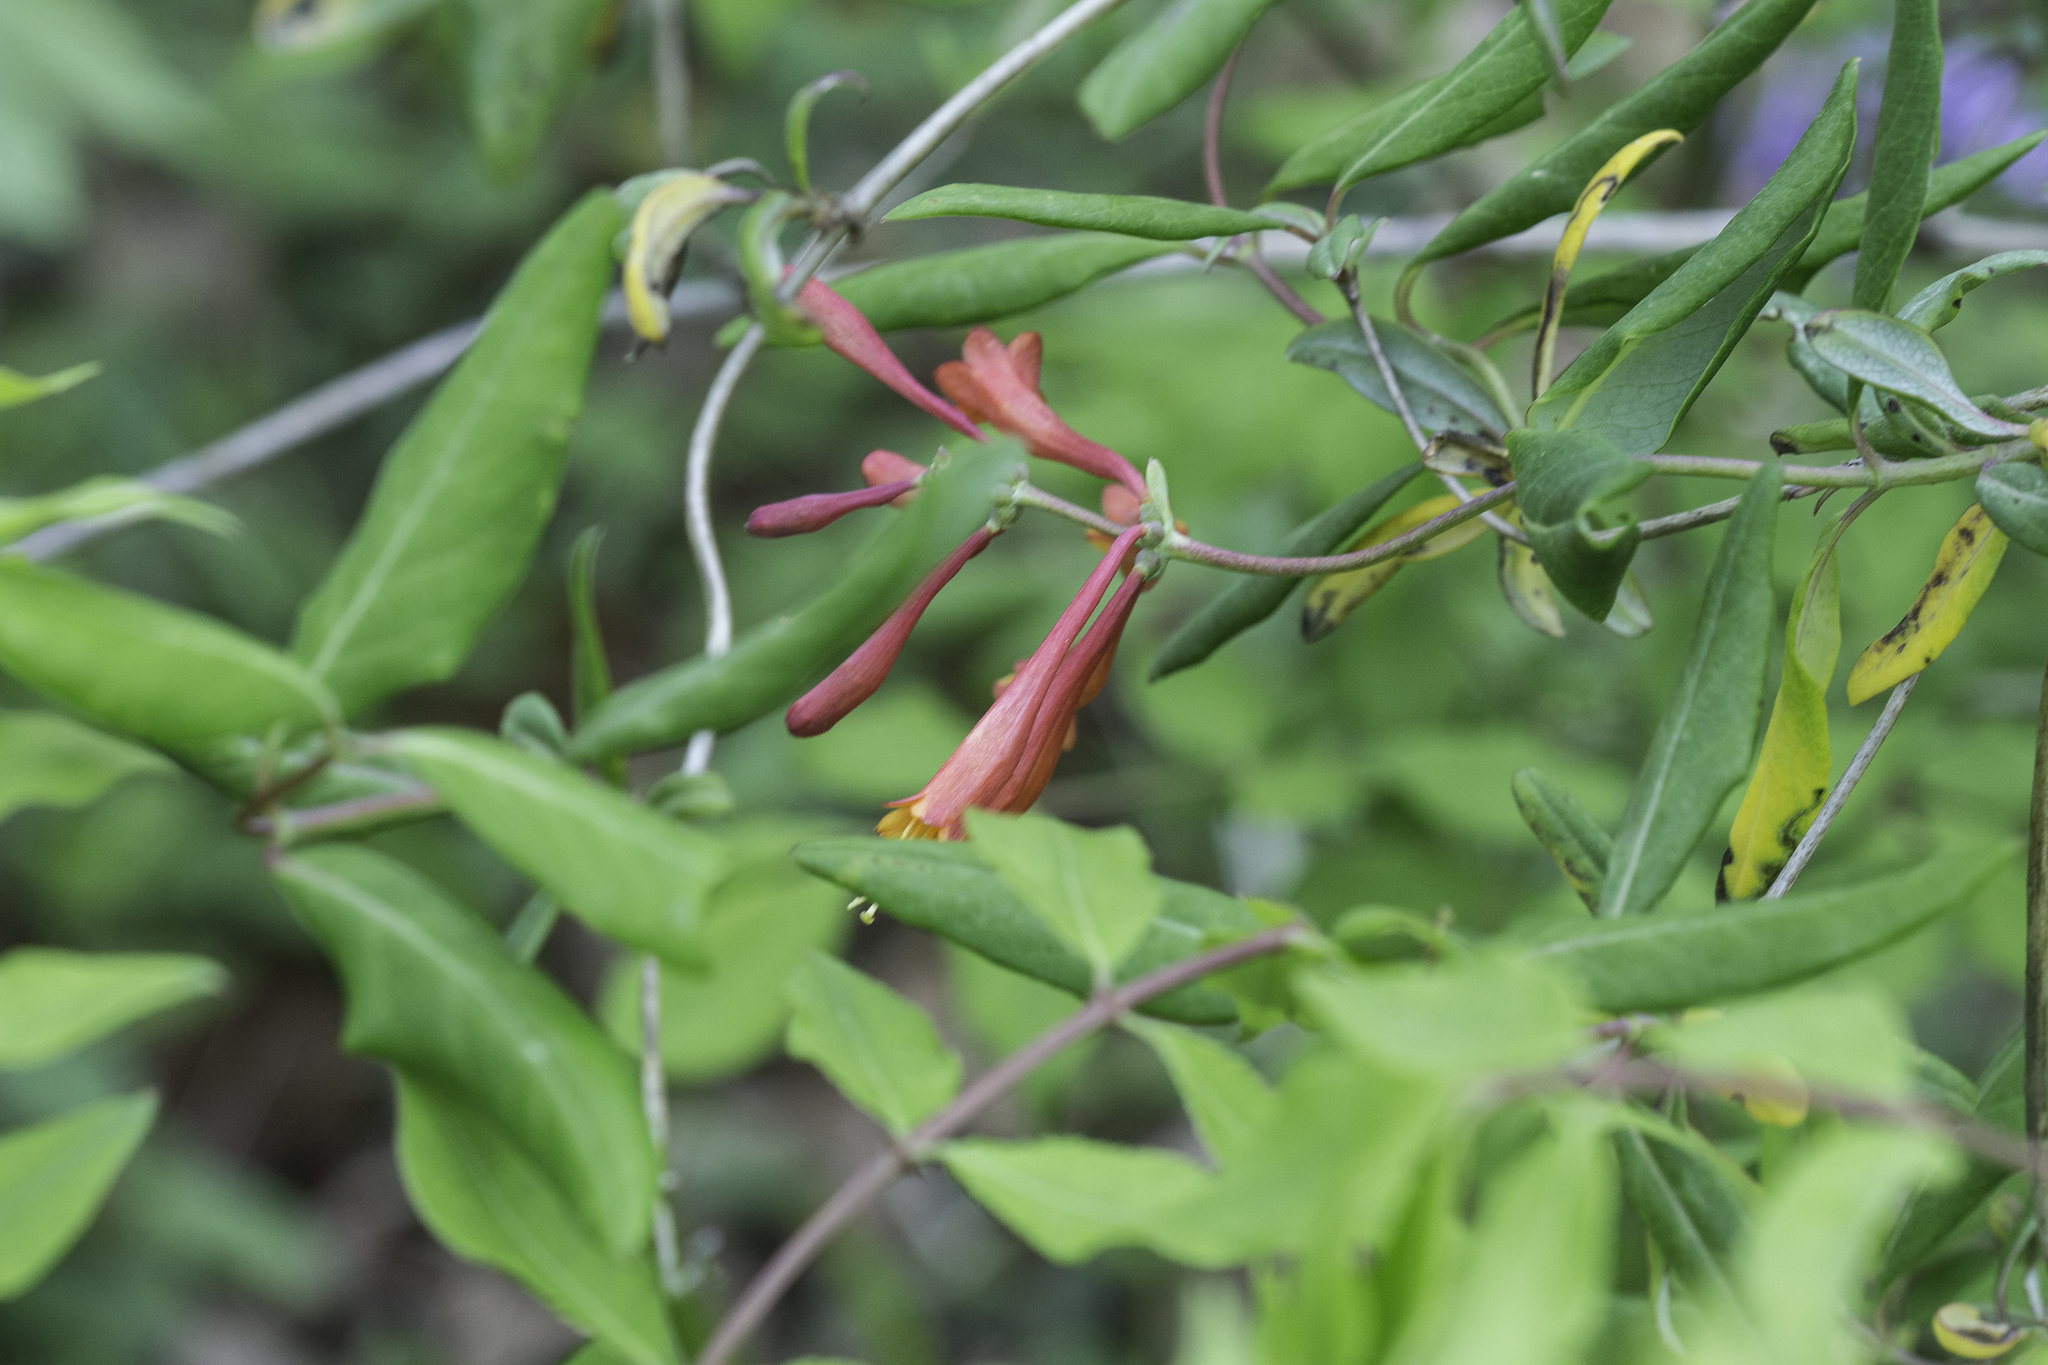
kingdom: Plantae
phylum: Tracheophyta
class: Magnoliopsida
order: Dipsacales
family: Caprifoliaceae
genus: Lonicera
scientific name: Lonicera sempervirens
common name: Coral honeysuckle
